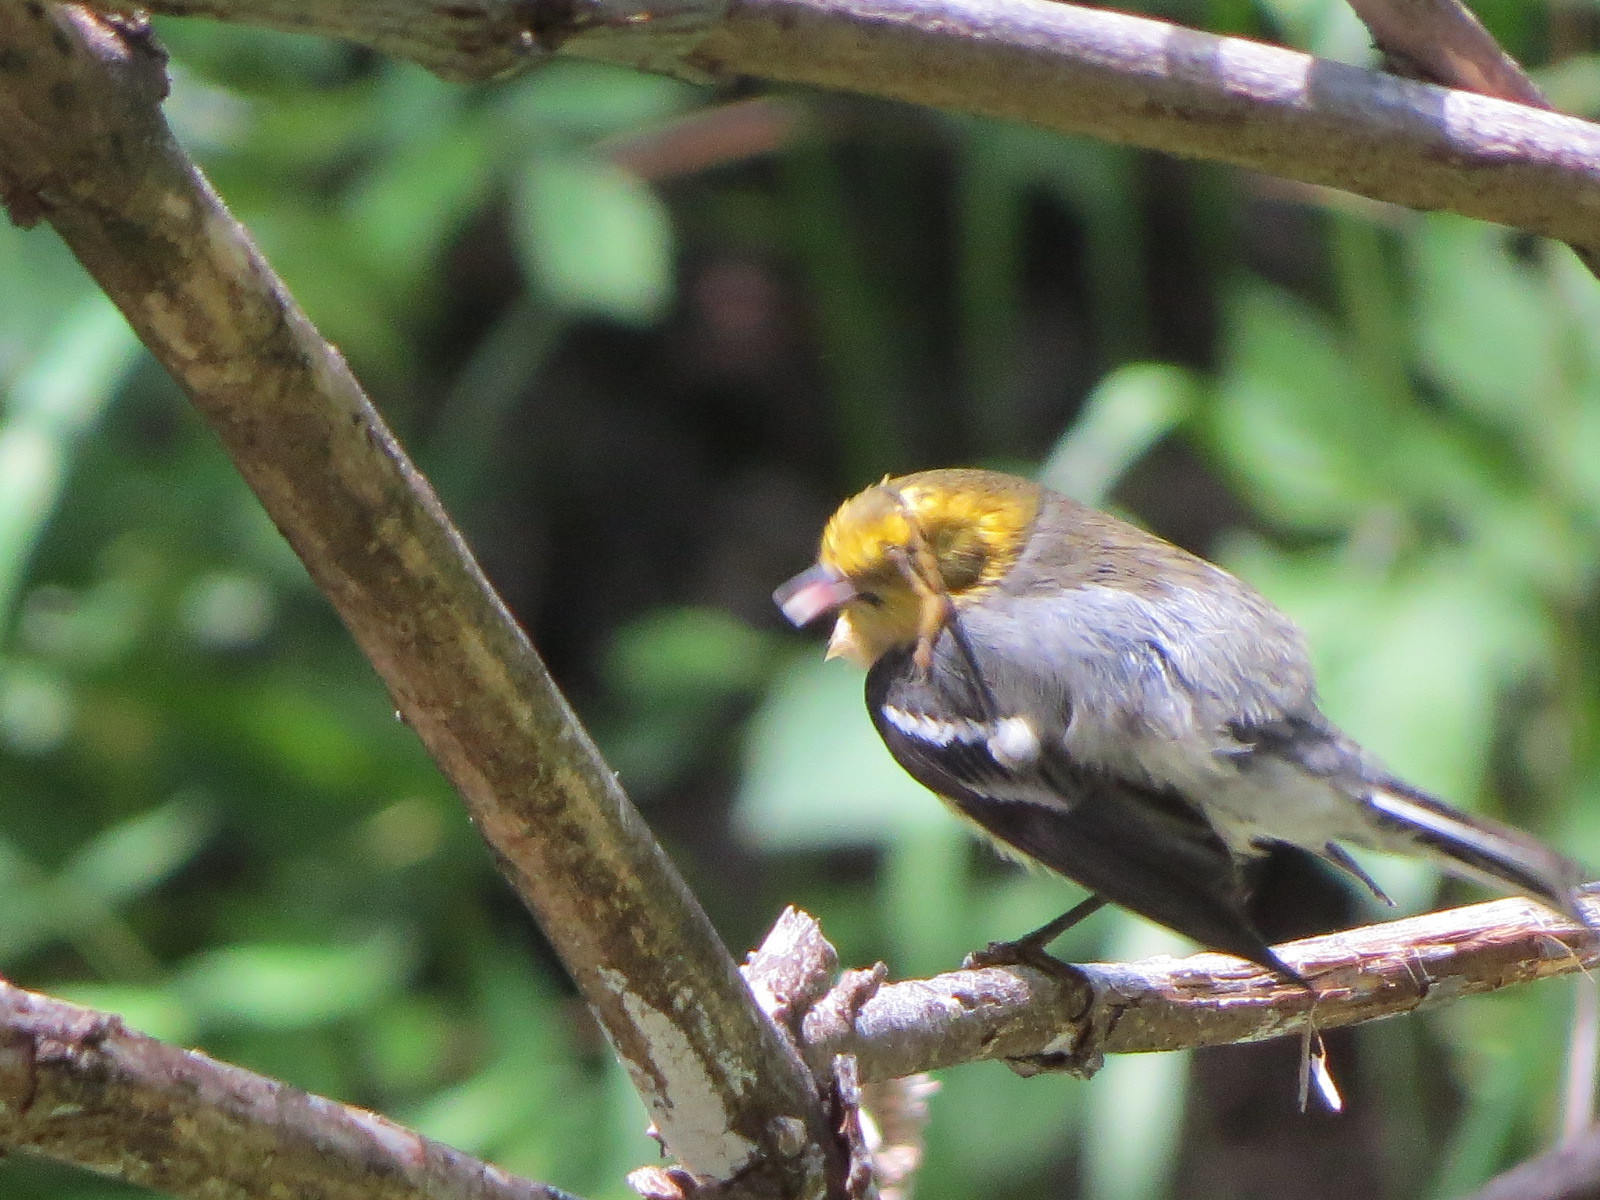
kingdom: Animalia
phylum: Chordata
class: Aves
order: Passeriformes
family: Parulidae
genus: Setophaga
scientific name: Setophaga occidentalis
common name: Hermit warbler
